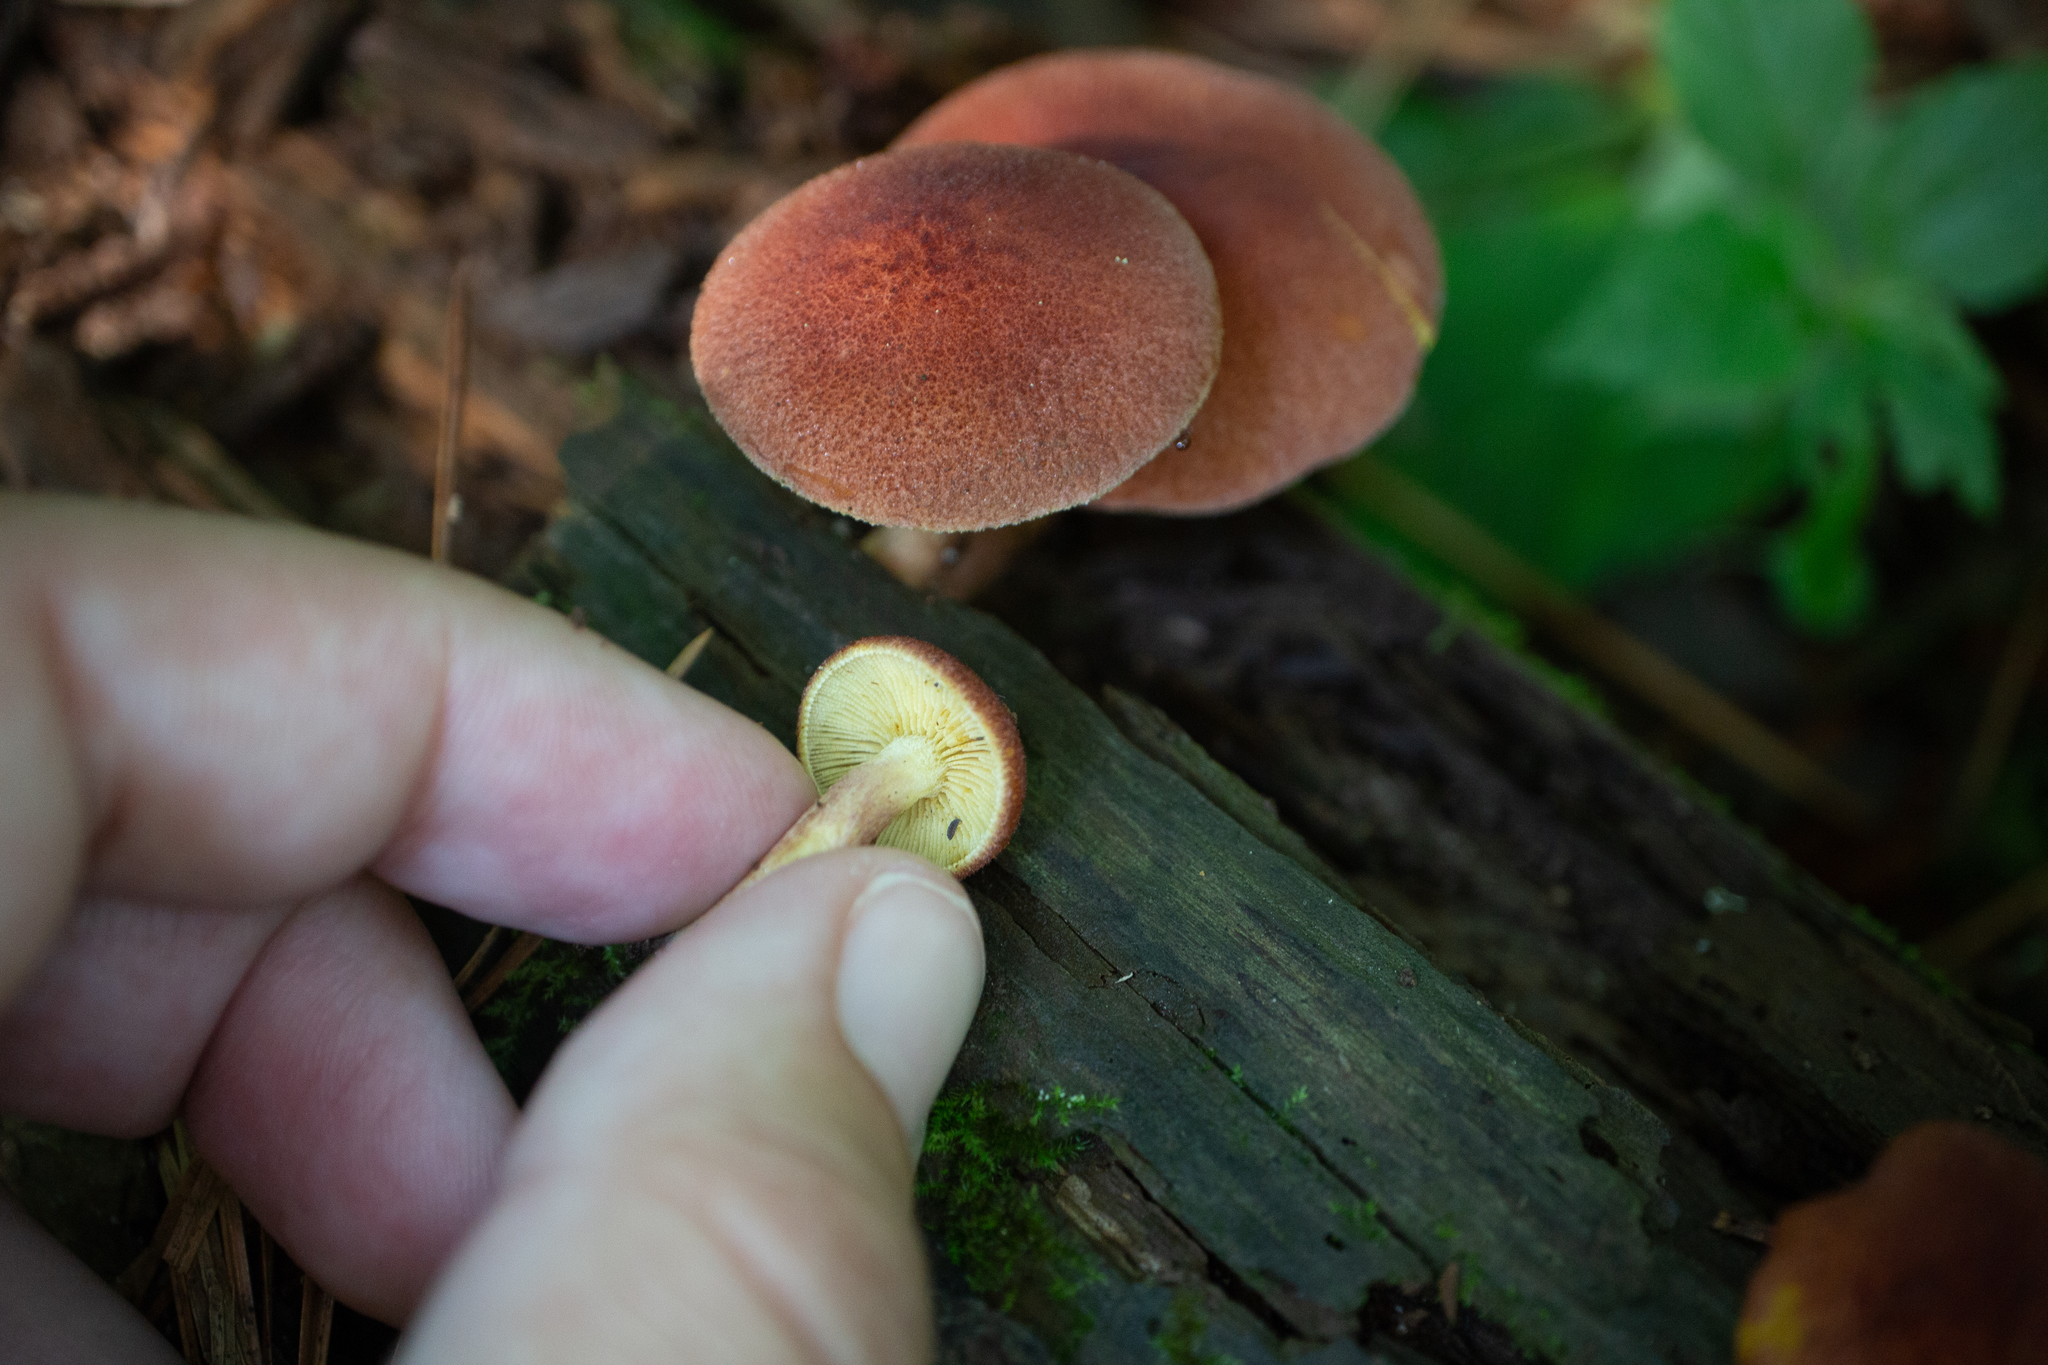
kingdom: Fungi
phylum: Basidiomycota
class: Agaricomycetes
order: Agaricales
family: Tricholomataceae
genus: Tricholomopsis
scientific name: Tricholomopsis rutilans
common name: Plums and custard
